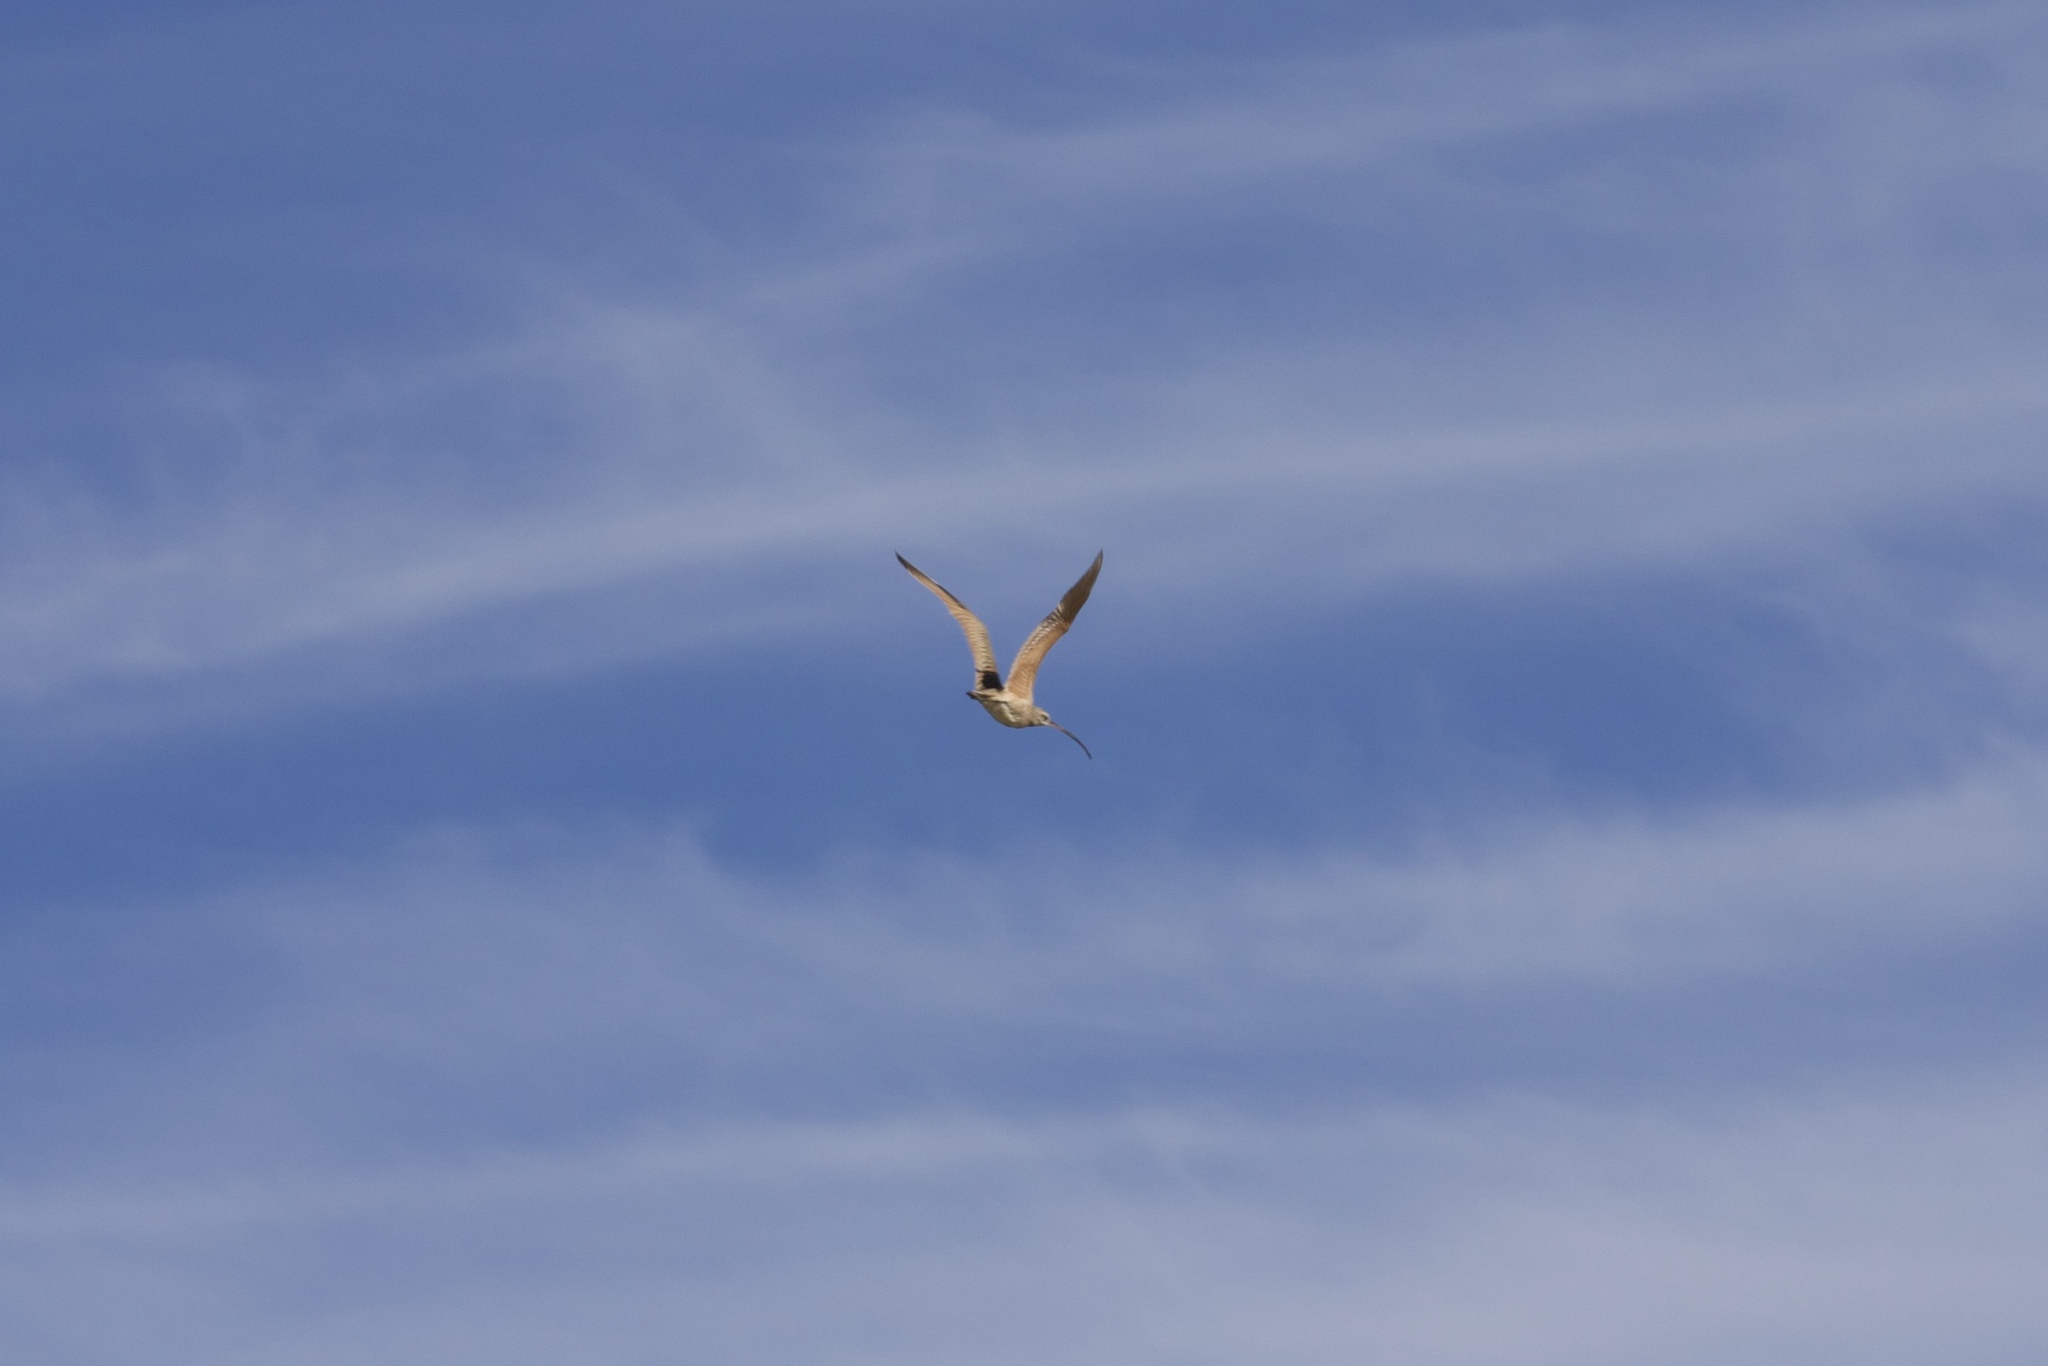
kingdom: Animalia
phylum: Chordata
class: Aves
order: Charadriiformes
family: Scolopacidae
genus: Numenius
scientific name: Numenius americanus
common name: Long-billed curlew
